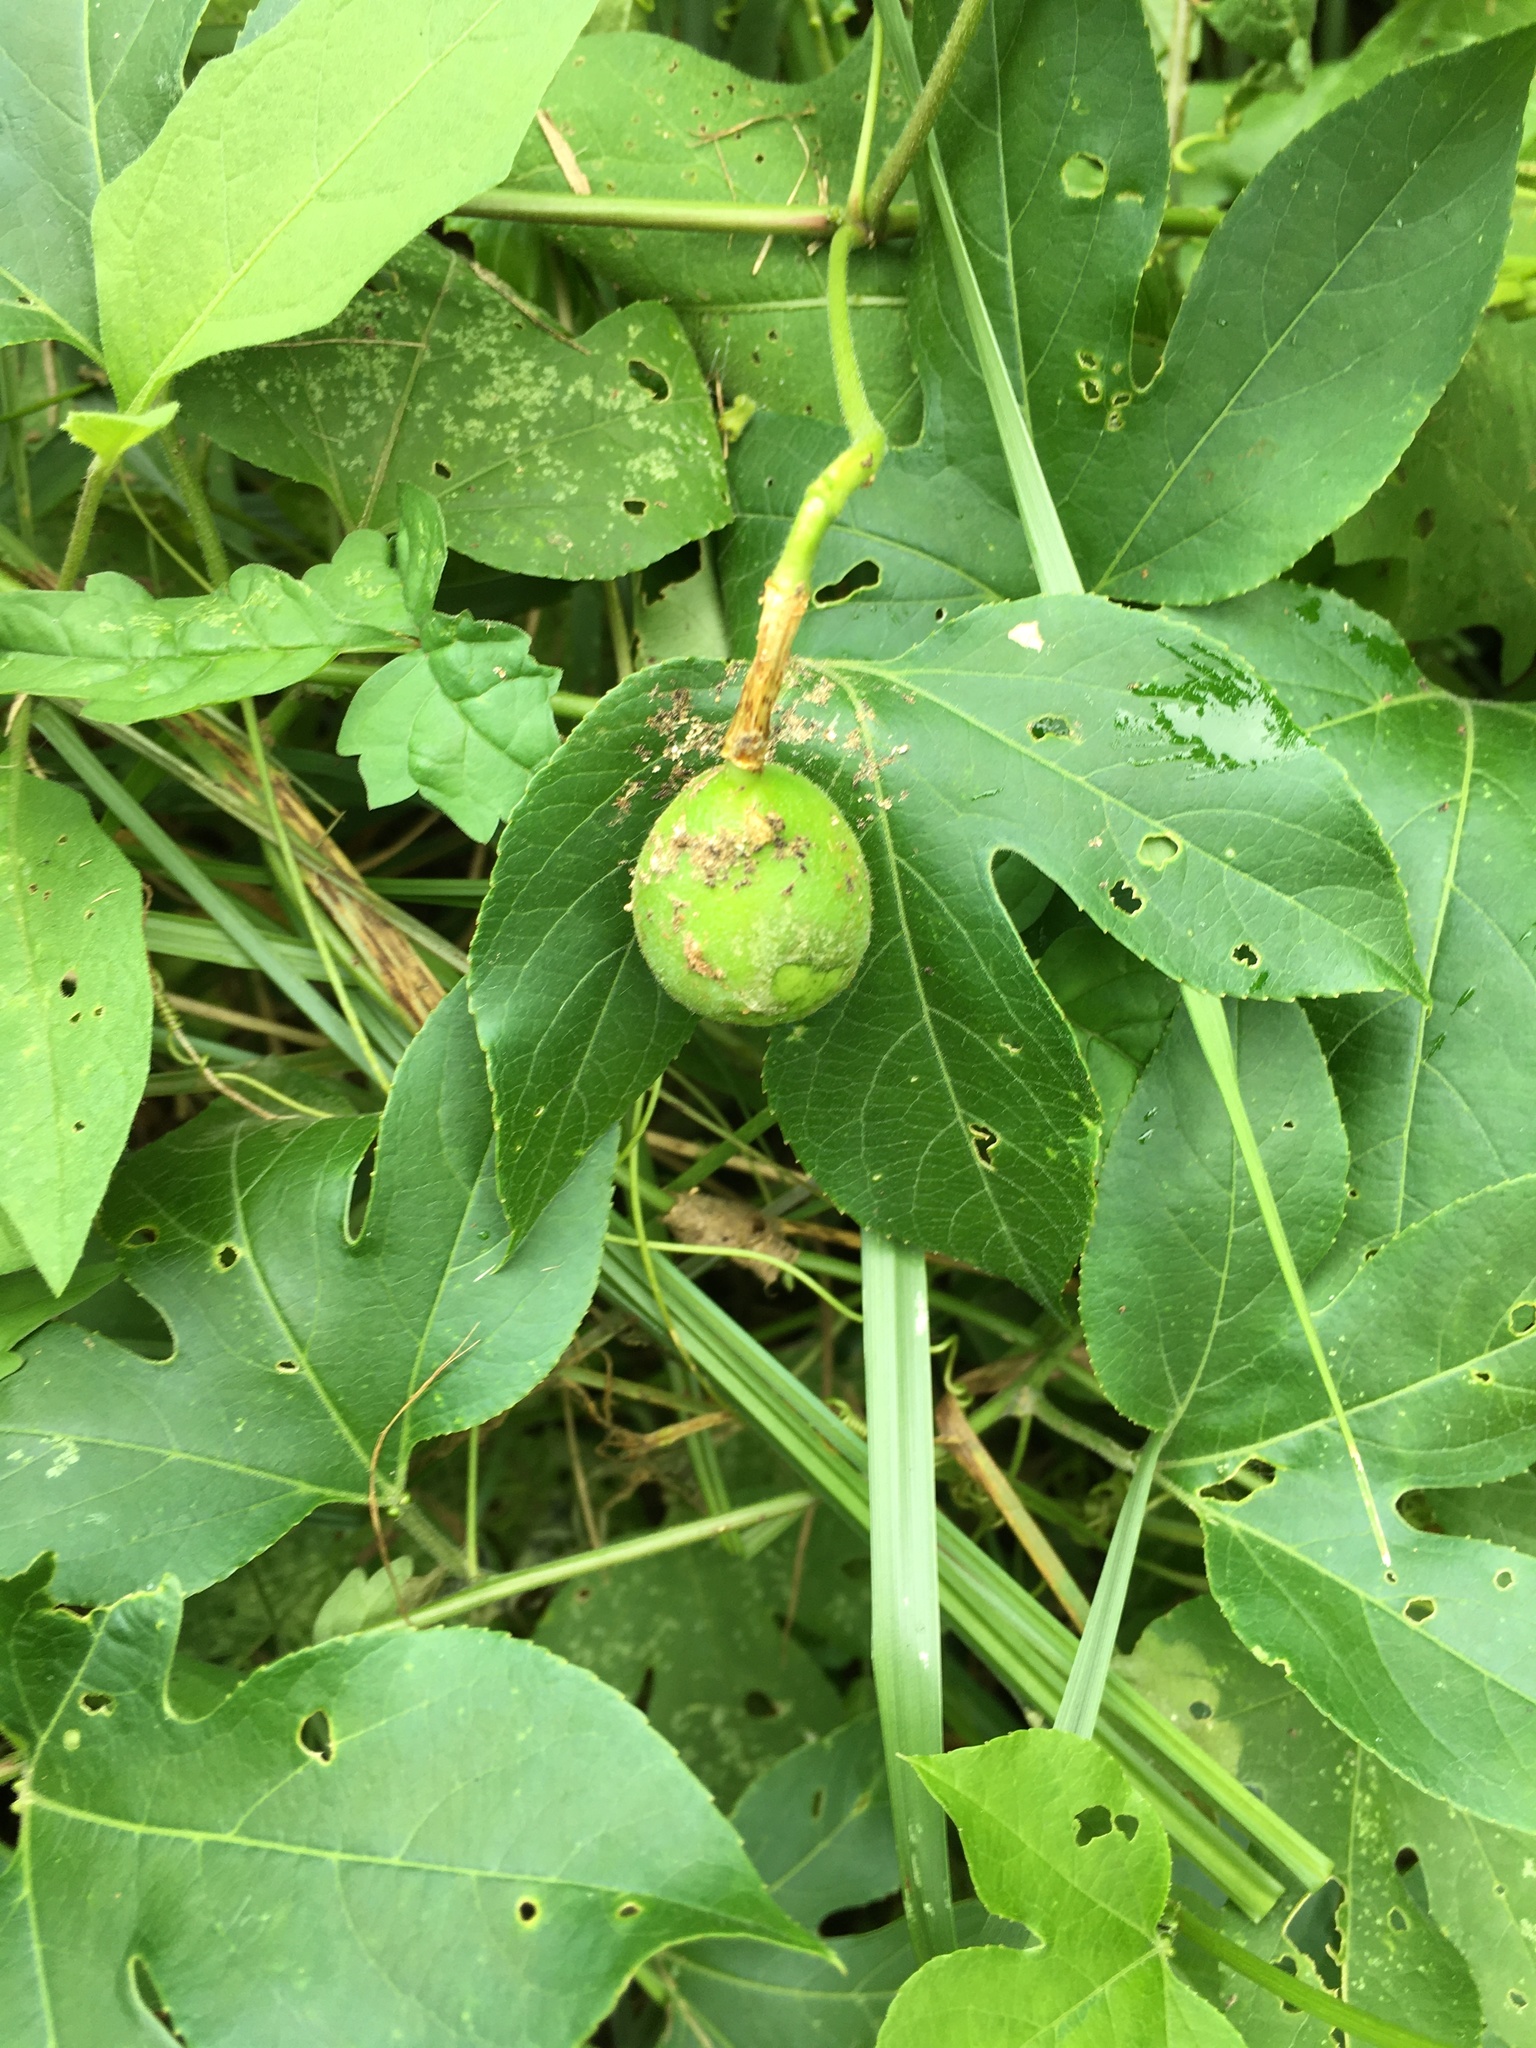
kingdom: Plantae
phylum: Tracheophyta
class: Magnoliopsida
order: Malpighiales
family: Passifloraceae
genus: Passiflora
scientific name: Passiflora incarnata
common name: Apricot-vine
